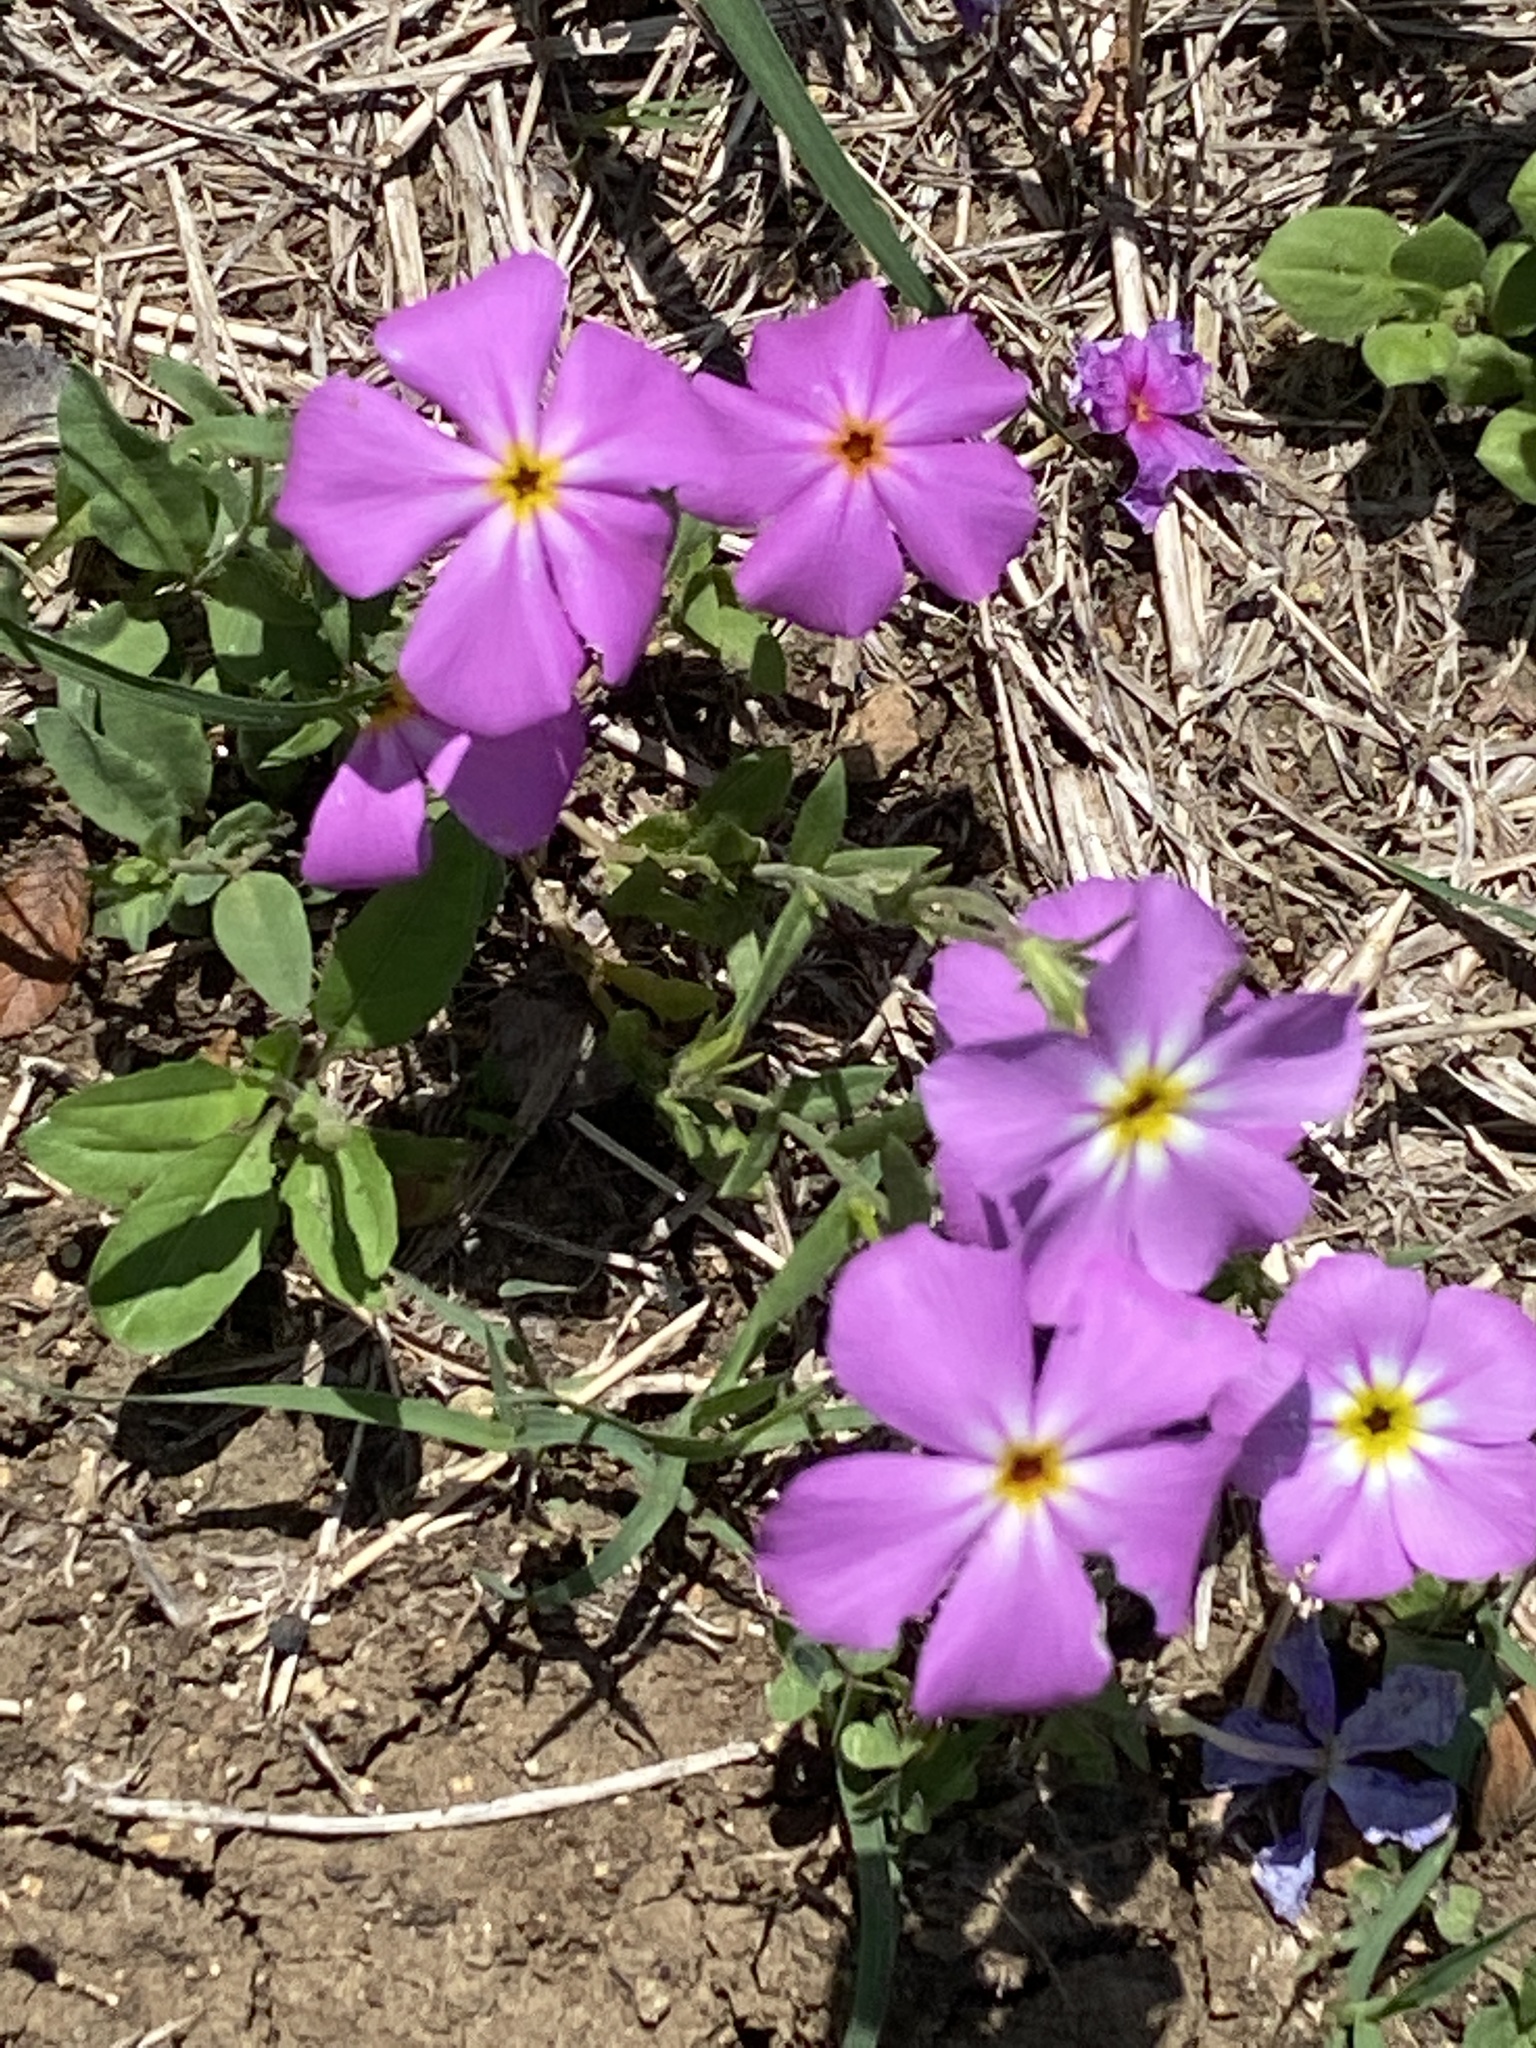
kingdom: Plantae
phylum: Tracheophyta
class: Magnoliopsida
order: Ericales
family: Polemoniaceae
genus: Phlox
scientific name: Phlox roemeriana
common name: Roemer's phlox
